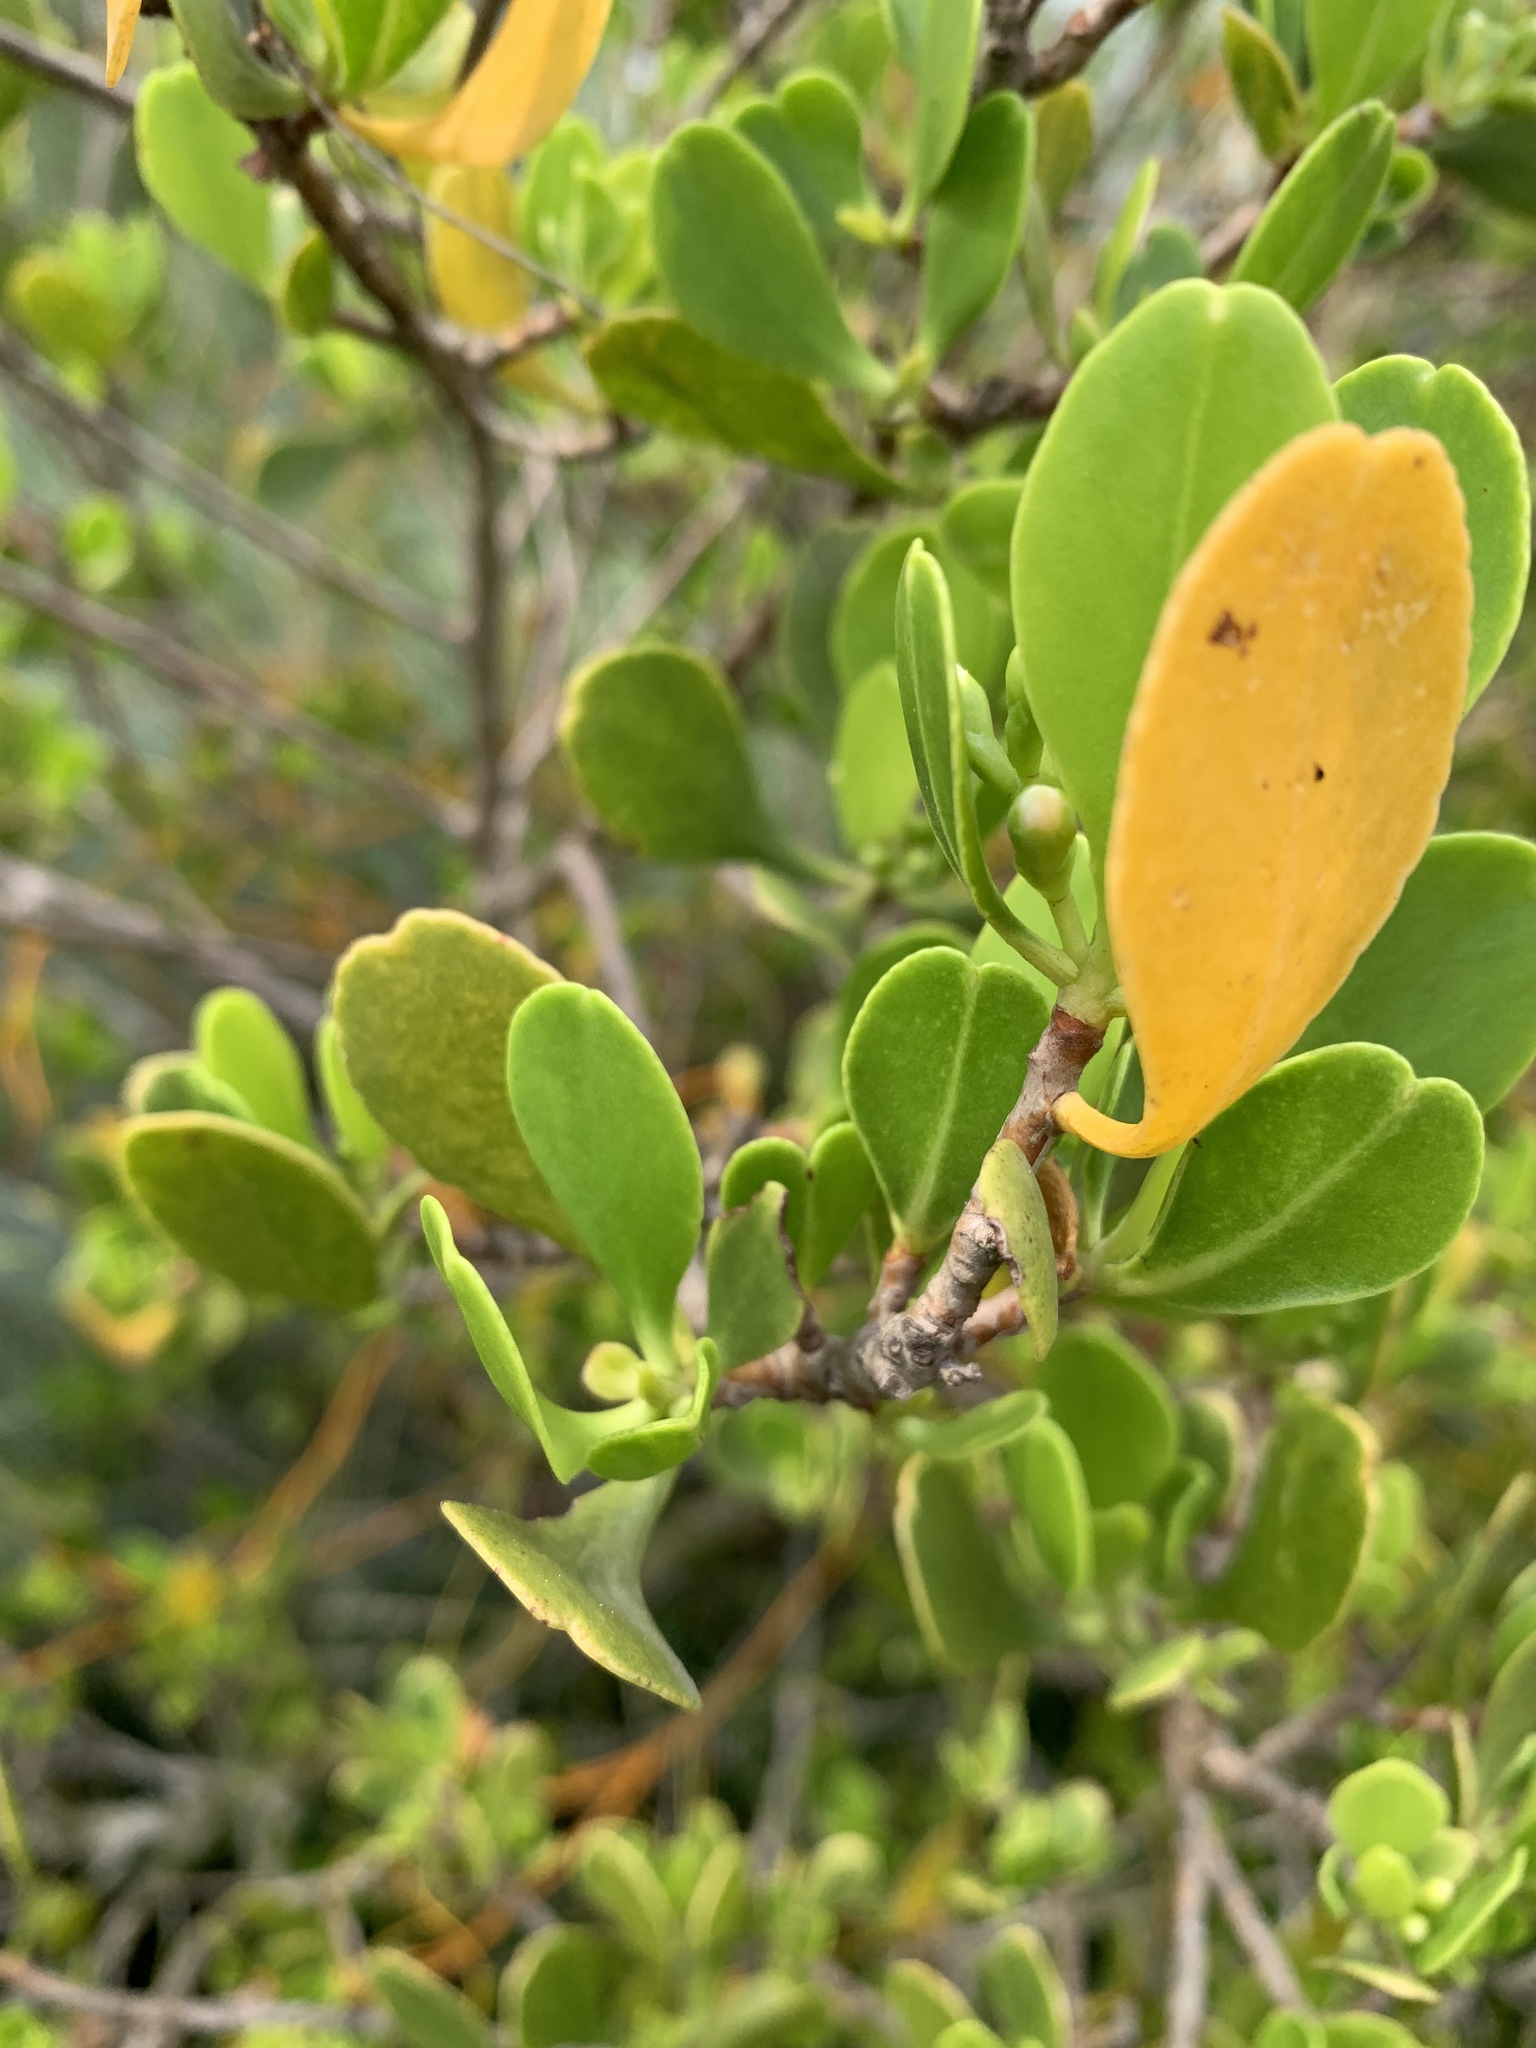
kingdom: Plantae
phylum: Tracheophyta
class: Magnoliopsida
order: Myrtales
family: Combretaceae
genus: Lumnitzera
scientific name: Lumnitzera racemosa
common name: White-flowered black mangrove
